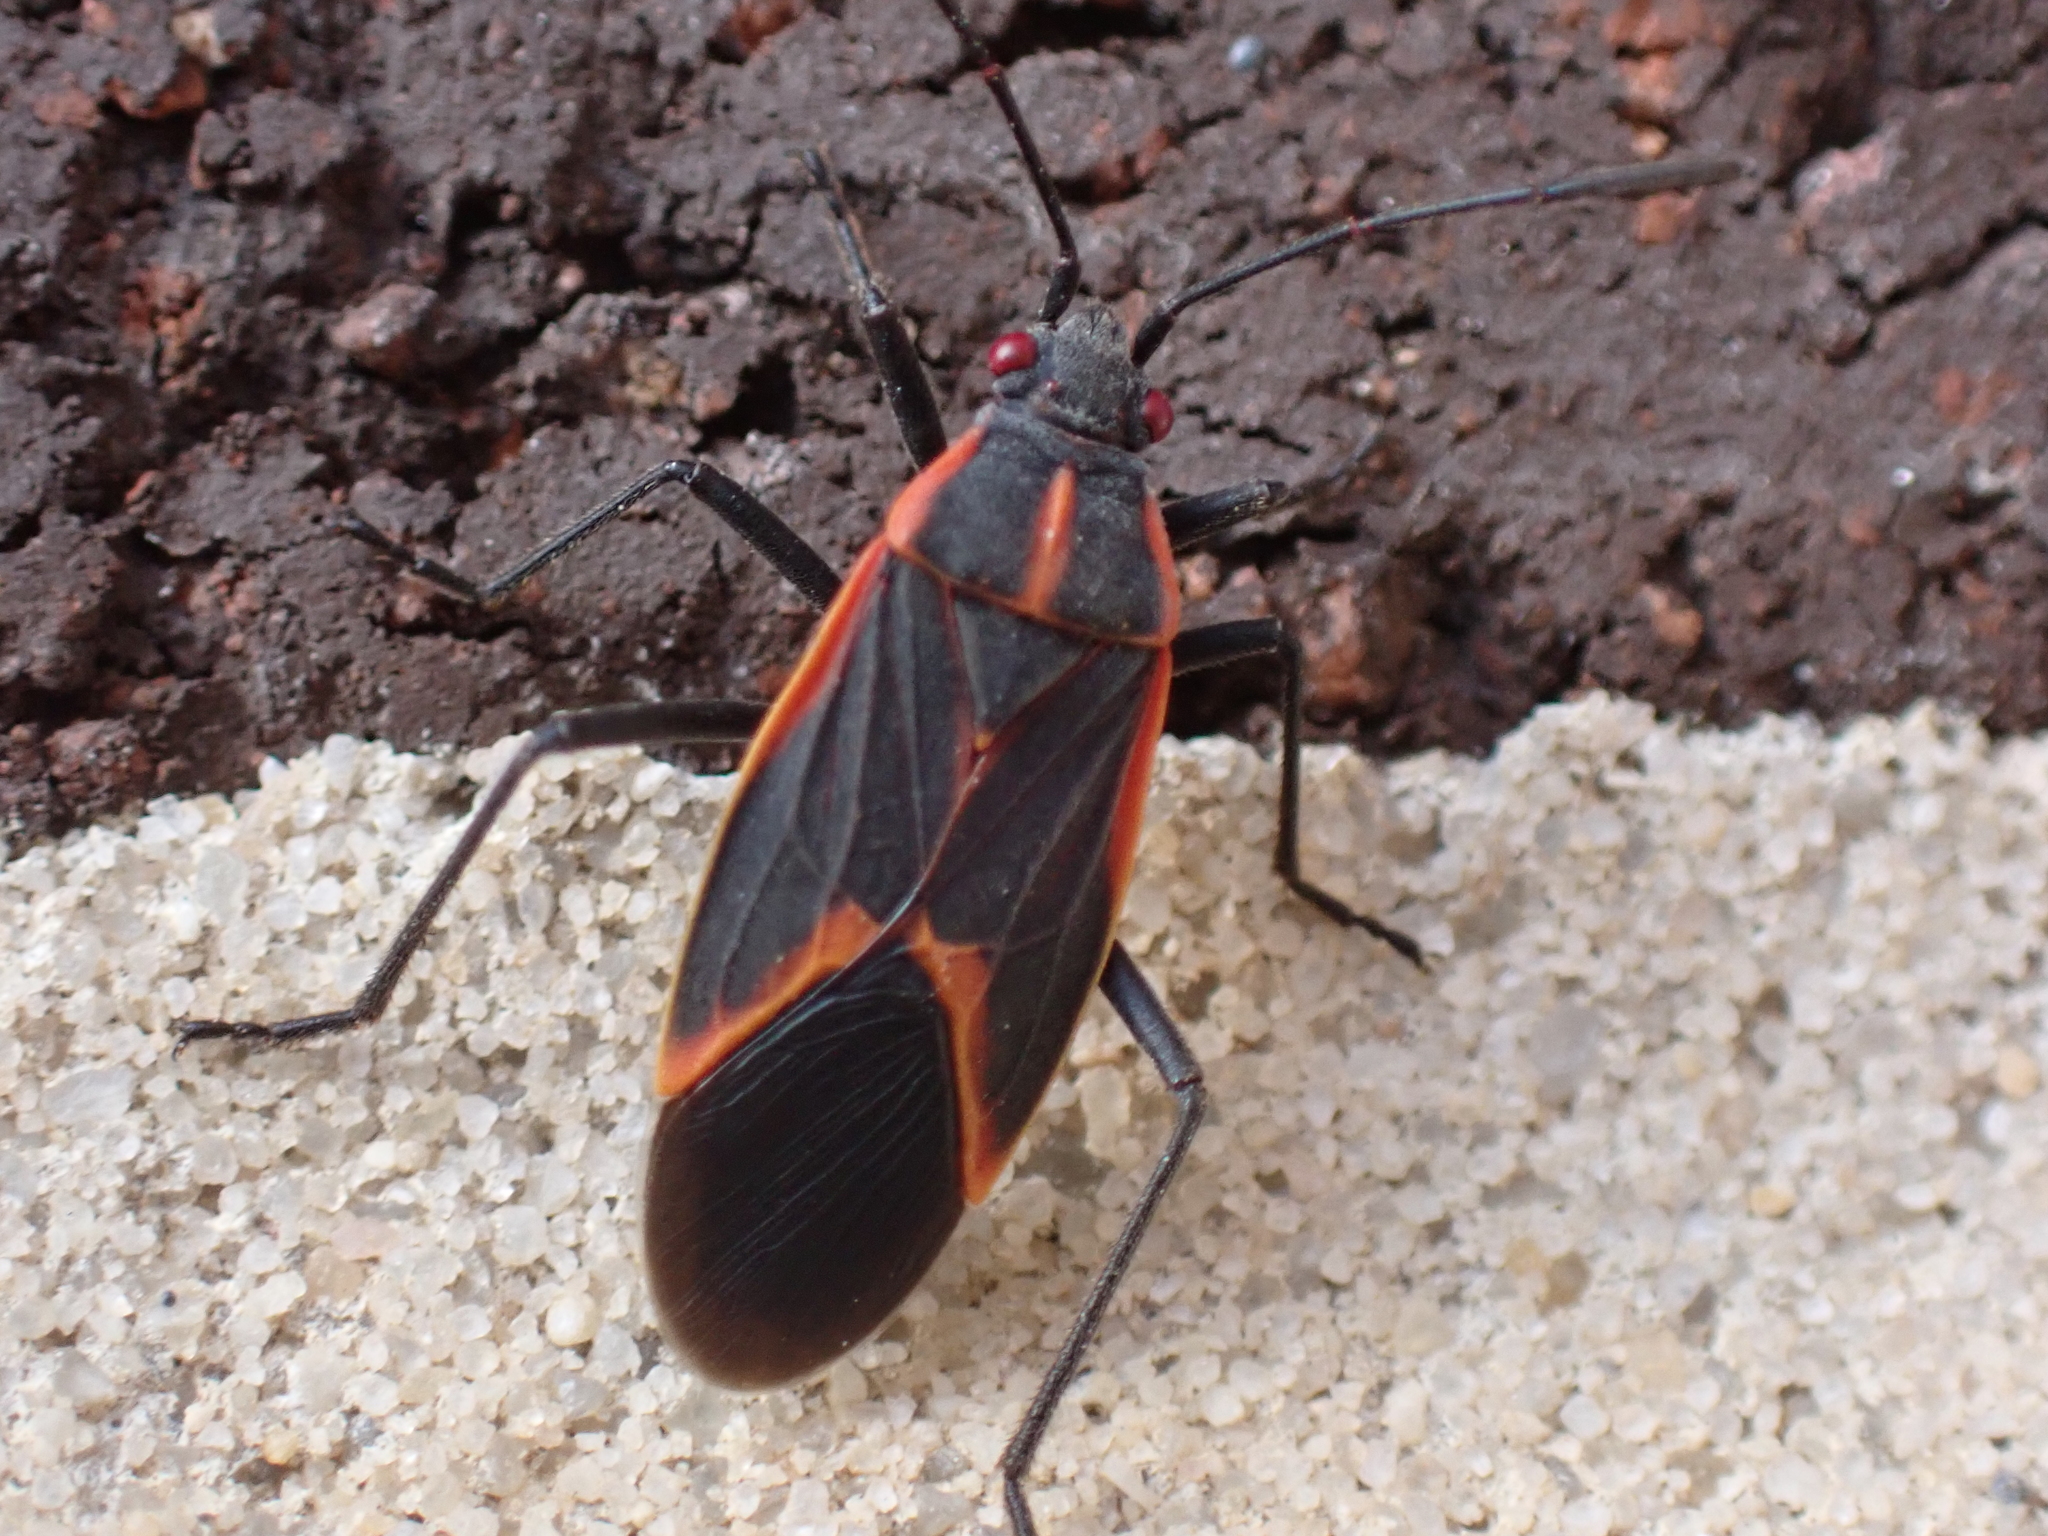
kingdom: Animalia
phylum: Arthropoda
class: Insecta
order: Hemiptera
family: Rhopalidae
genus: Boisea
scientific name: Boisea trivittata
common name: Boxelder bug
